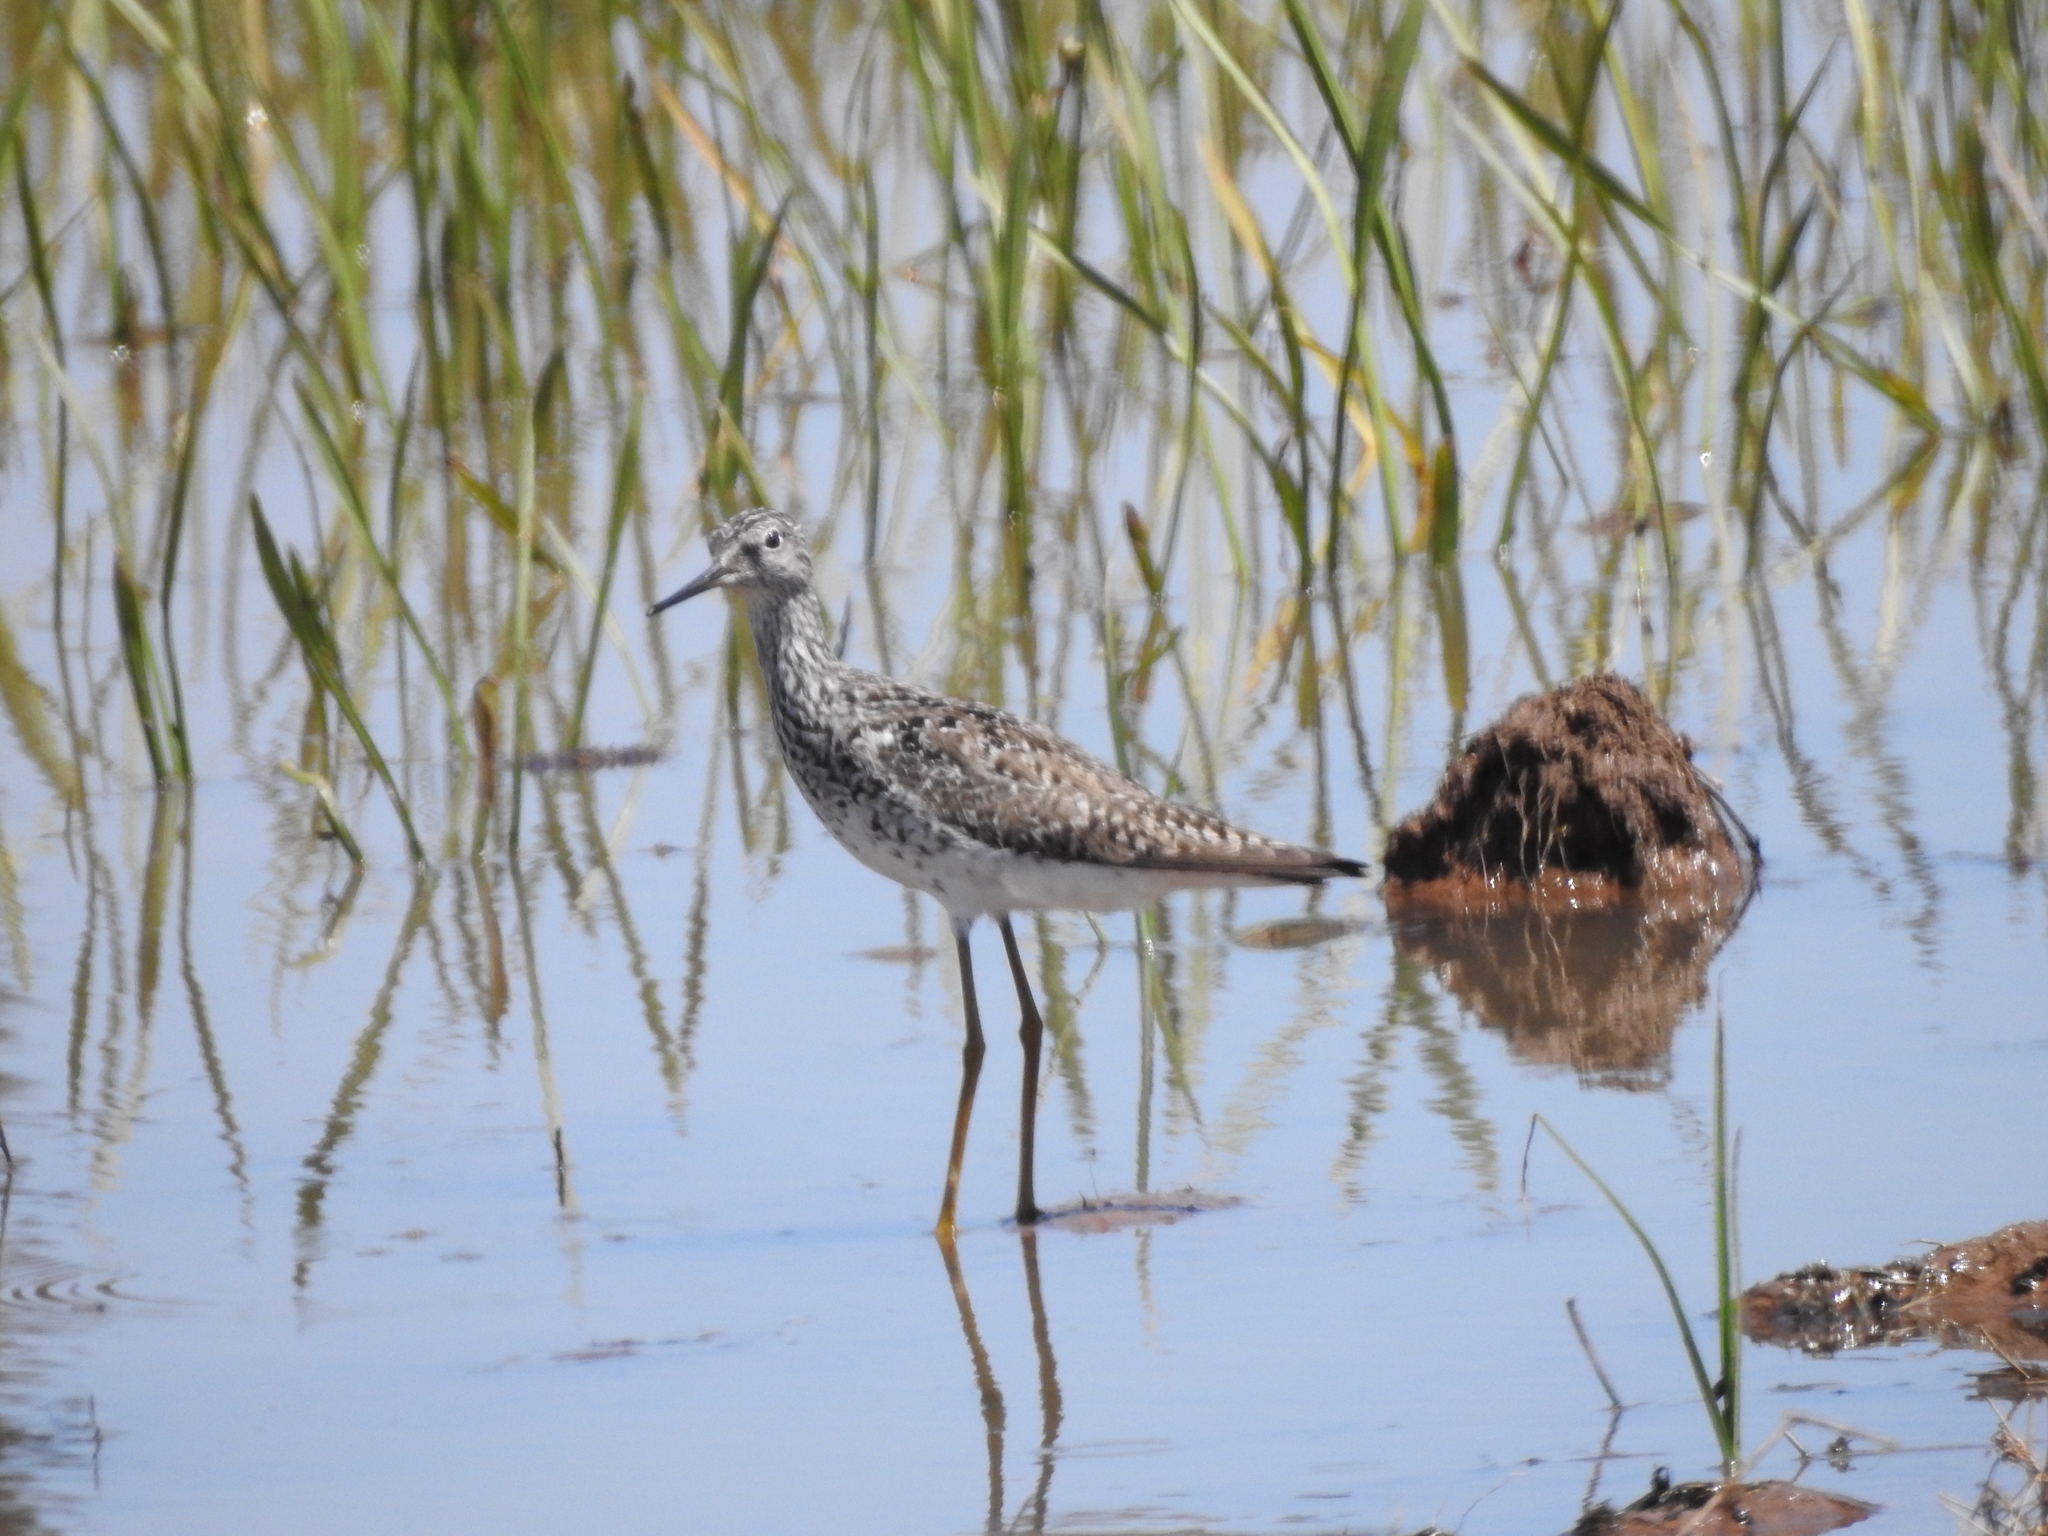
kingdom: Animalia
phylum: Chordata
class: Aves
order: Charadriiformes
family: Scolopacidae
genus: Tringa
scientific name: Tringa flavipes
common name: Lesser yellowlegs
